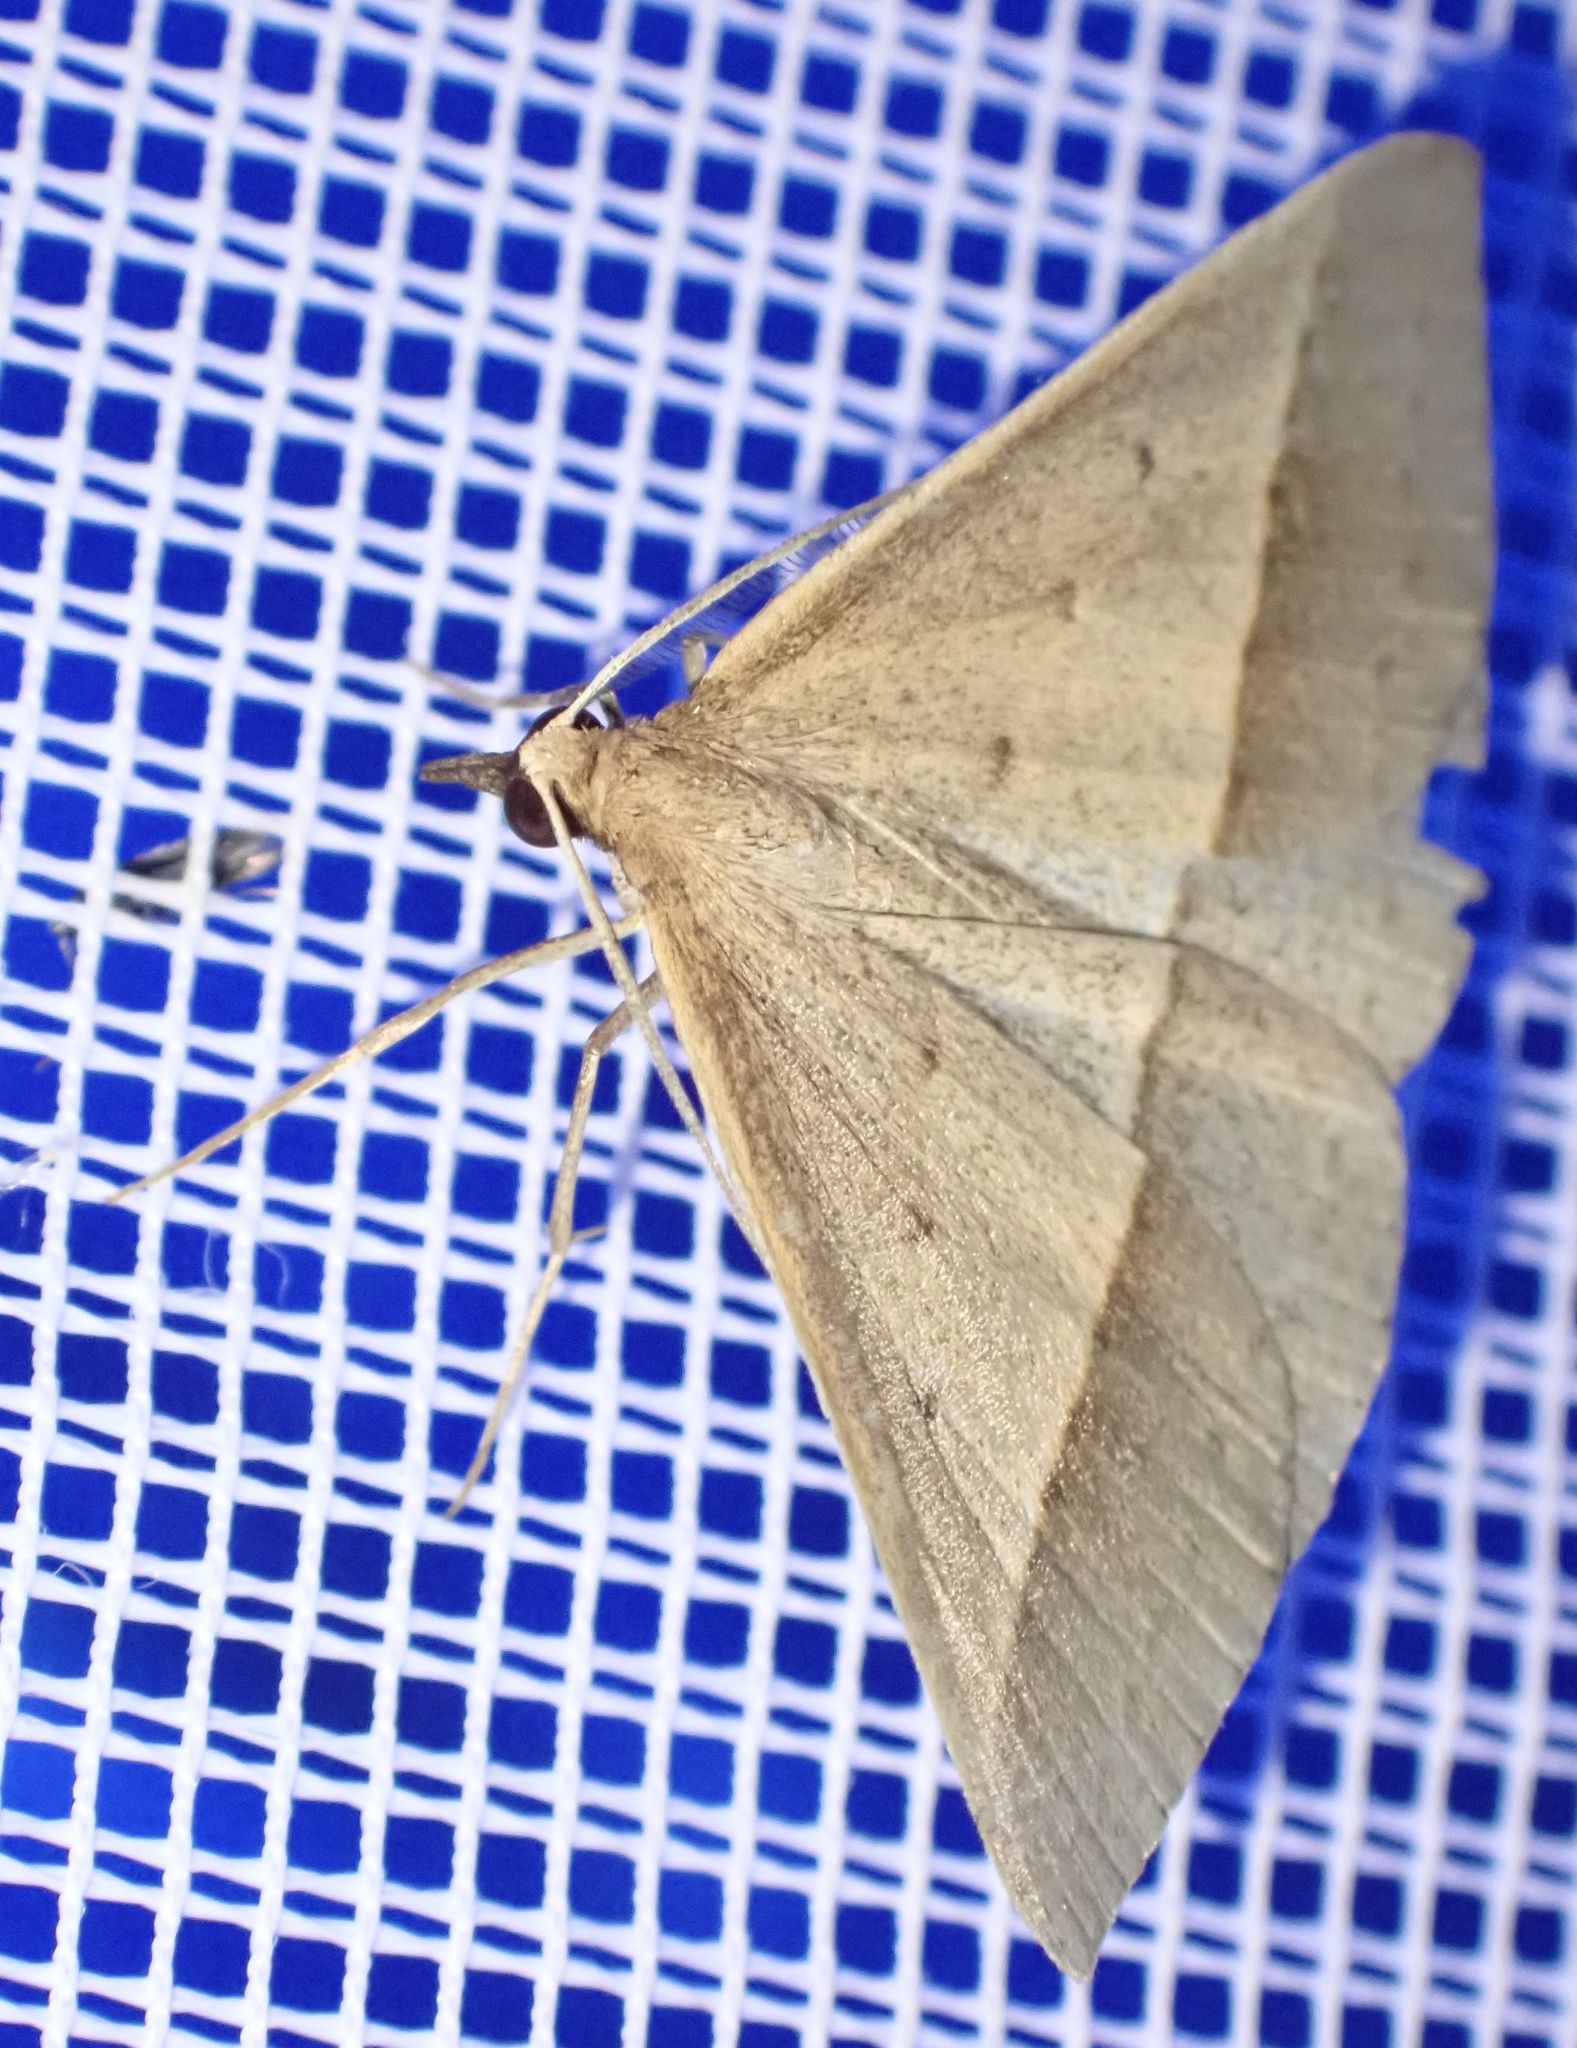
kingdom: Animalia
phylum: Arthropoda
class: Insecta
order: Lepidoptera
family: Geometridae
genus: Epidesmia
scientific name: Epidesmia tryxaria
